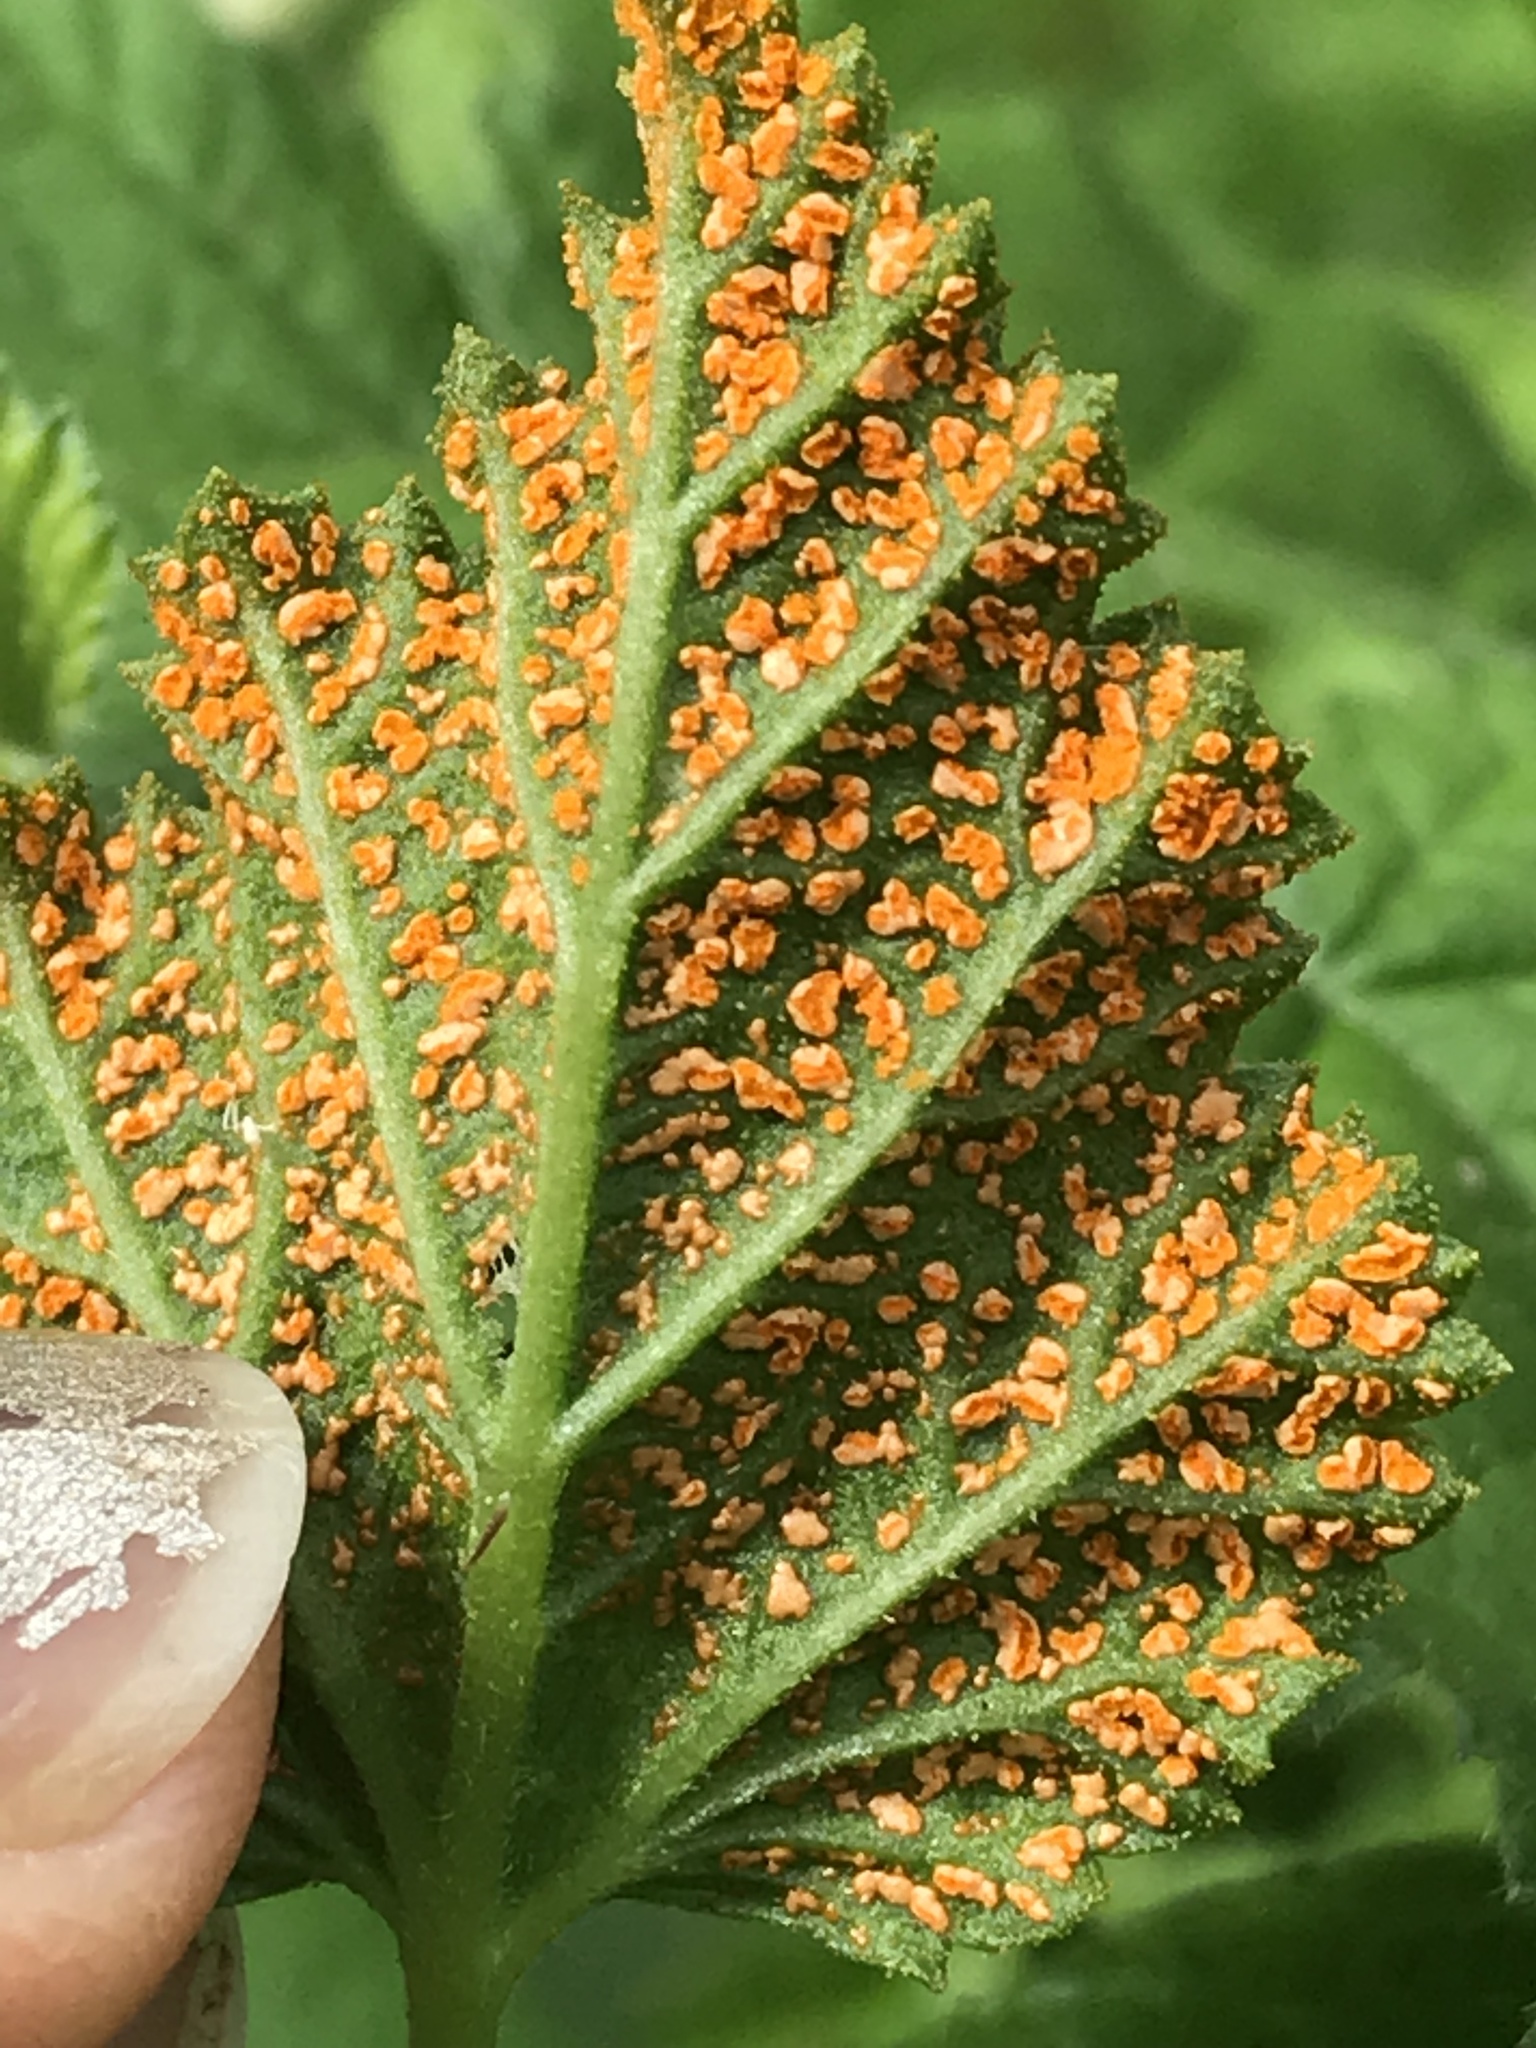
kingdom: Fungi
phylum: Basidiomycota
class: Pucciniomycetes
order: Pucciniales
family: Phragmidiaceae
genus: Arthuriomyces
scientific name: Arthuriomyces peckianus
